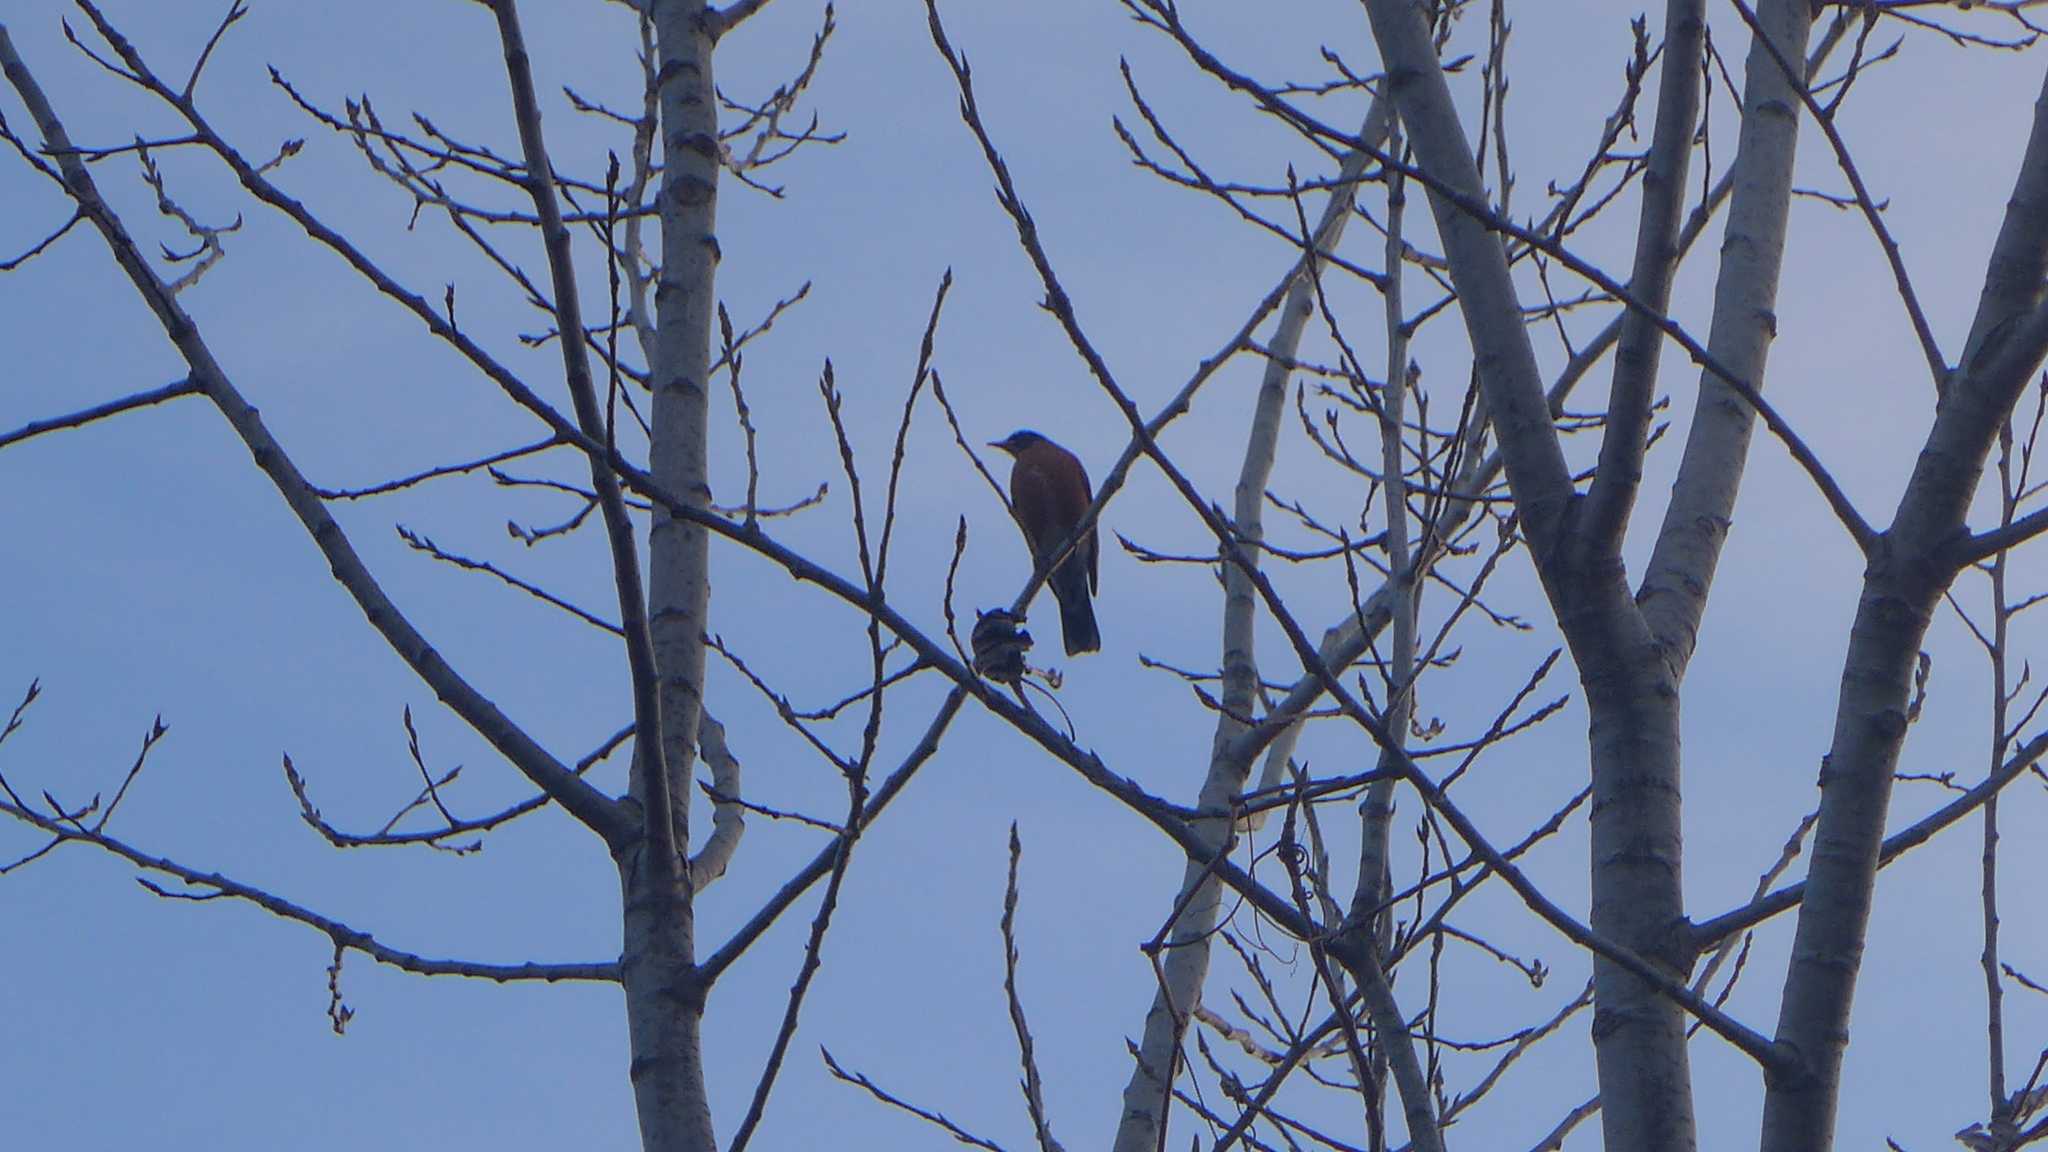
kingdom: Animalia
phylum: Chordata
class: Aves
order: Passeriformes
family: Turdidae
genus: Turdus
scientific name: Turdus migratorius
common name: American robin
